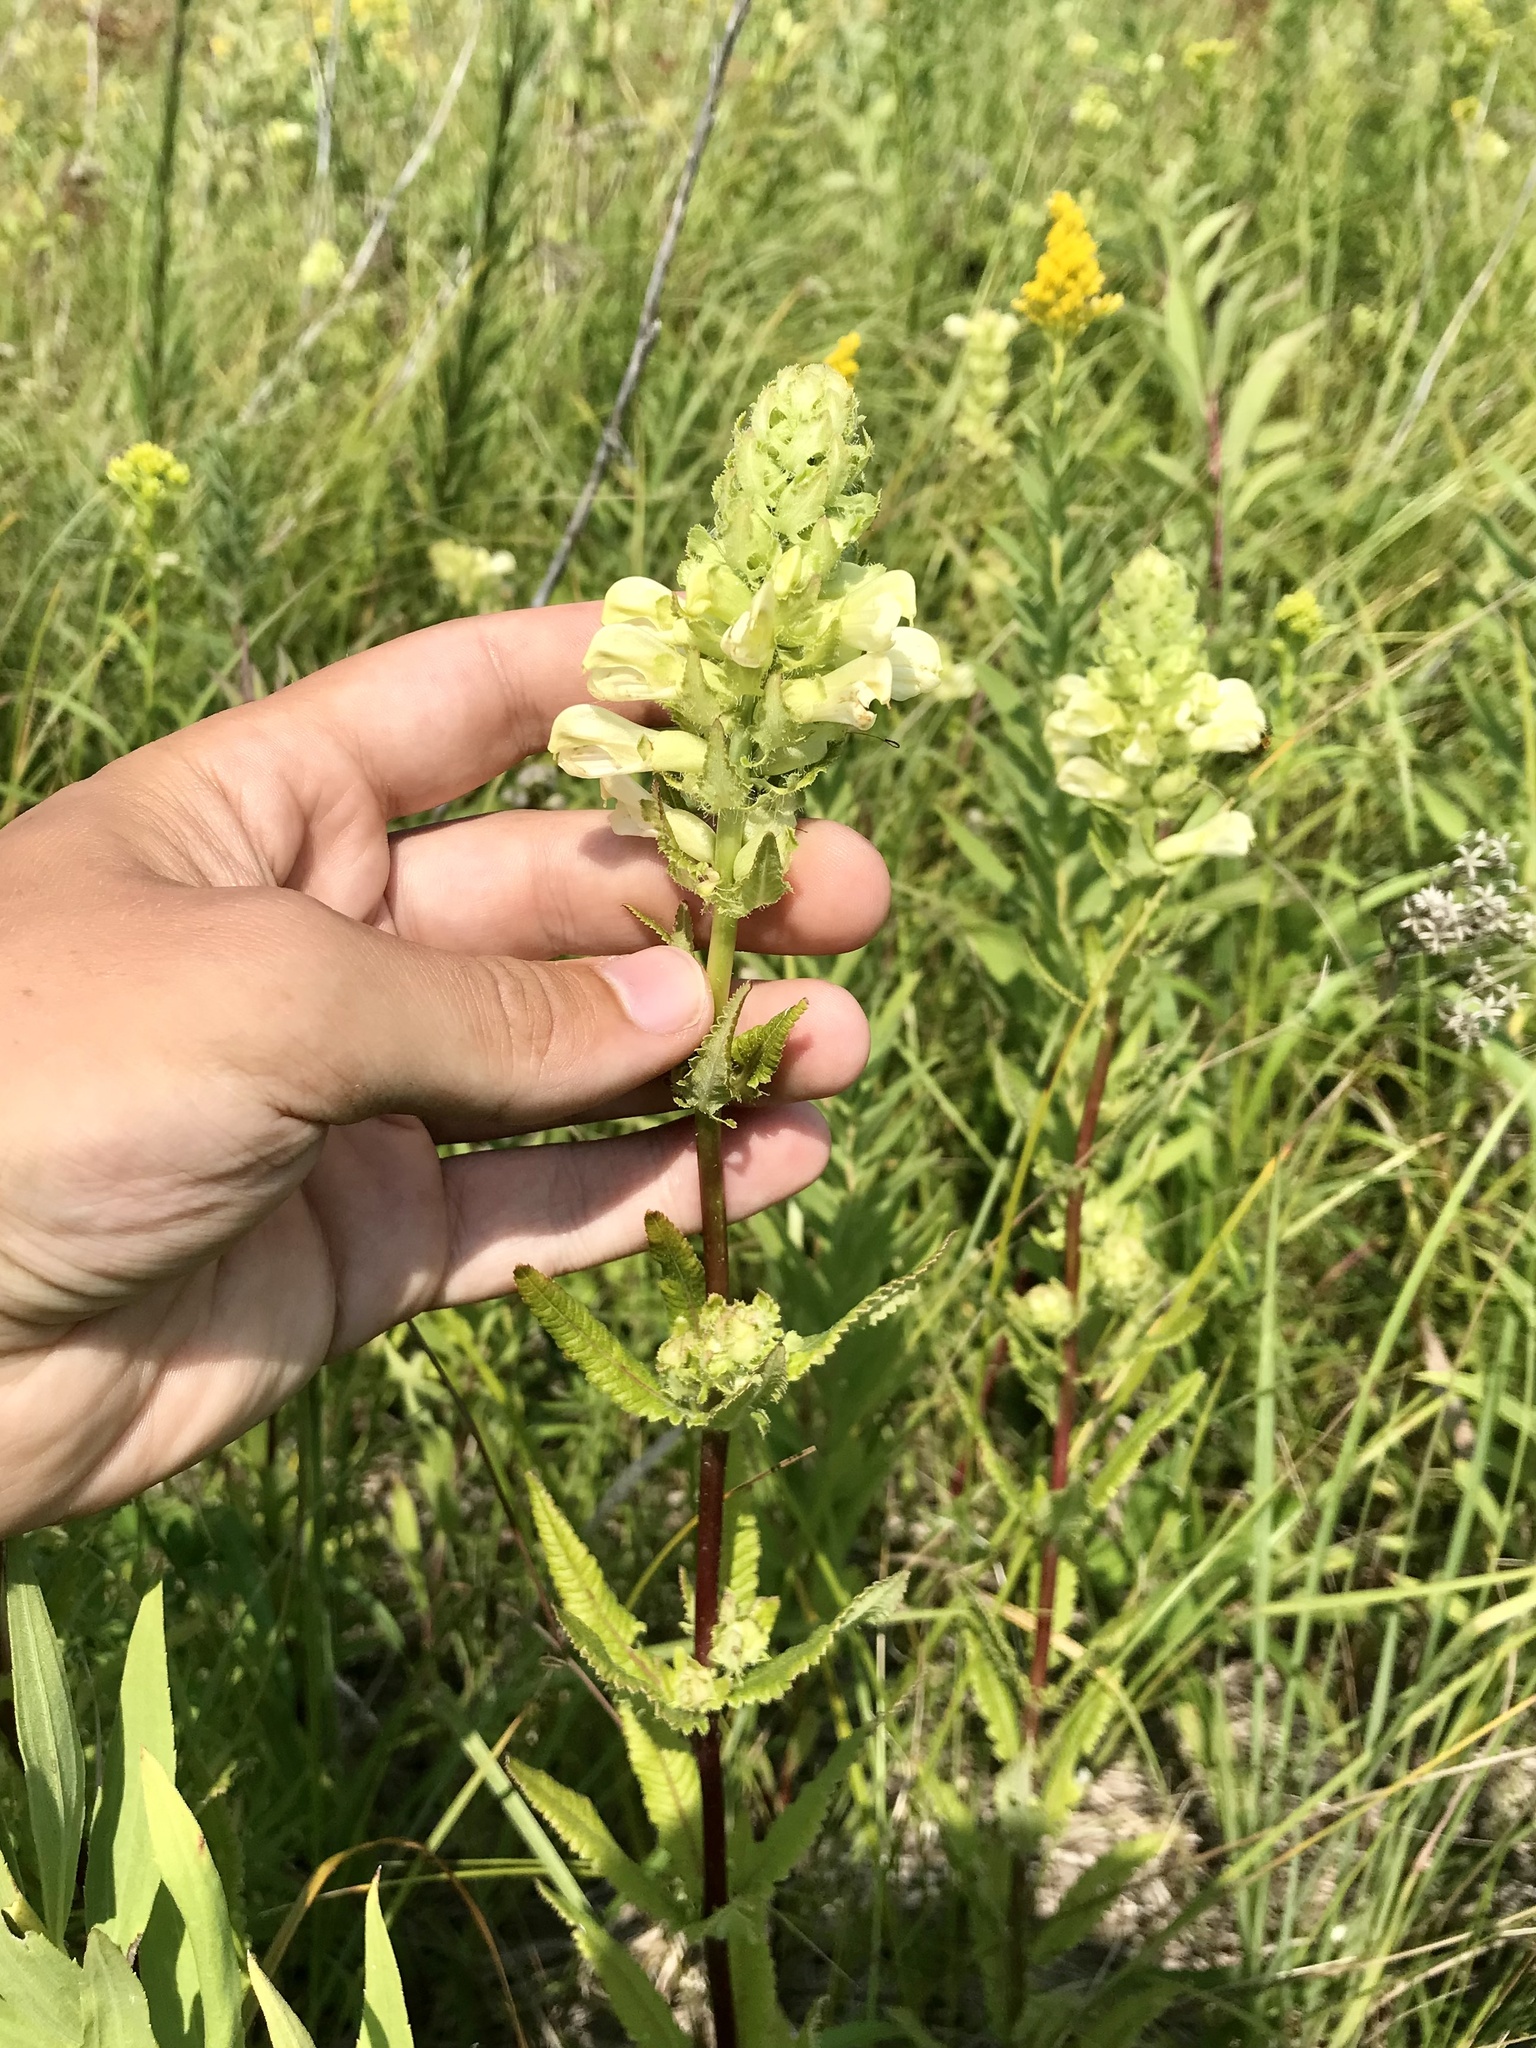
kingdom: Plantae
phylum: Tracheophyta
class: Magnoliopsida
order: Lamiales
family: Orobanchaceae
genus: Pedicularis
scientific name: Pedicularis lanceolata
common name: Swamp lousewort
